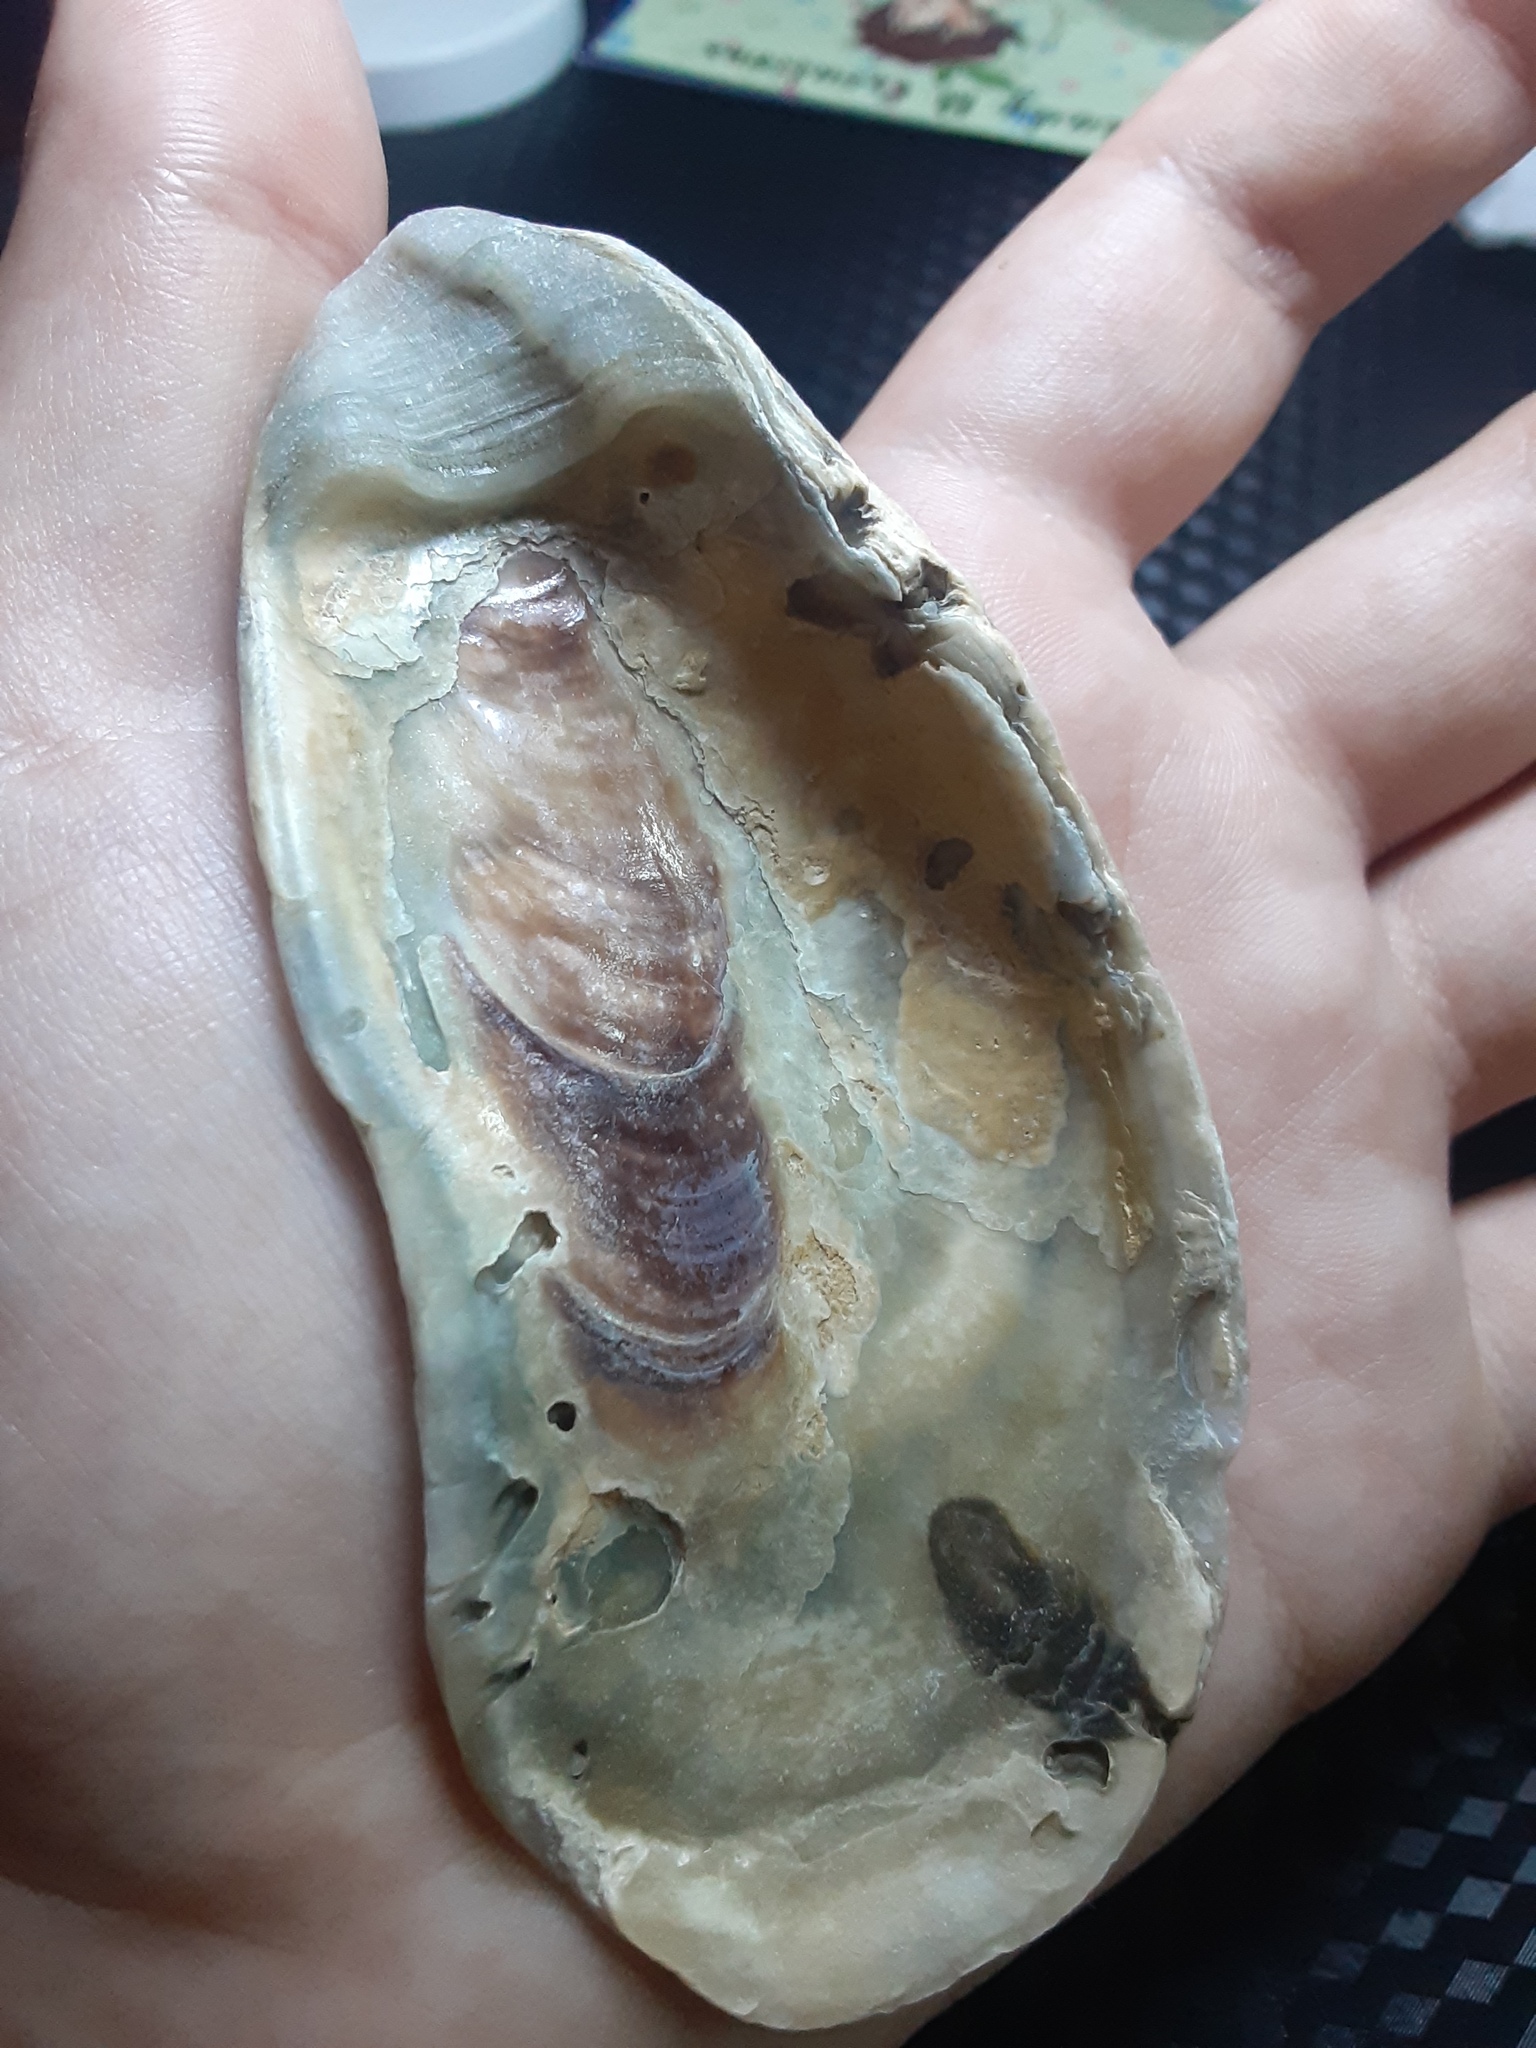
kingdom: Animalia
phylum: Mollusca
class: Bivalvia
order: Ostreida
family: Ostreidae
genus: Crassostrea
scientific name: Crassostrea virginica
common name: American oyster
